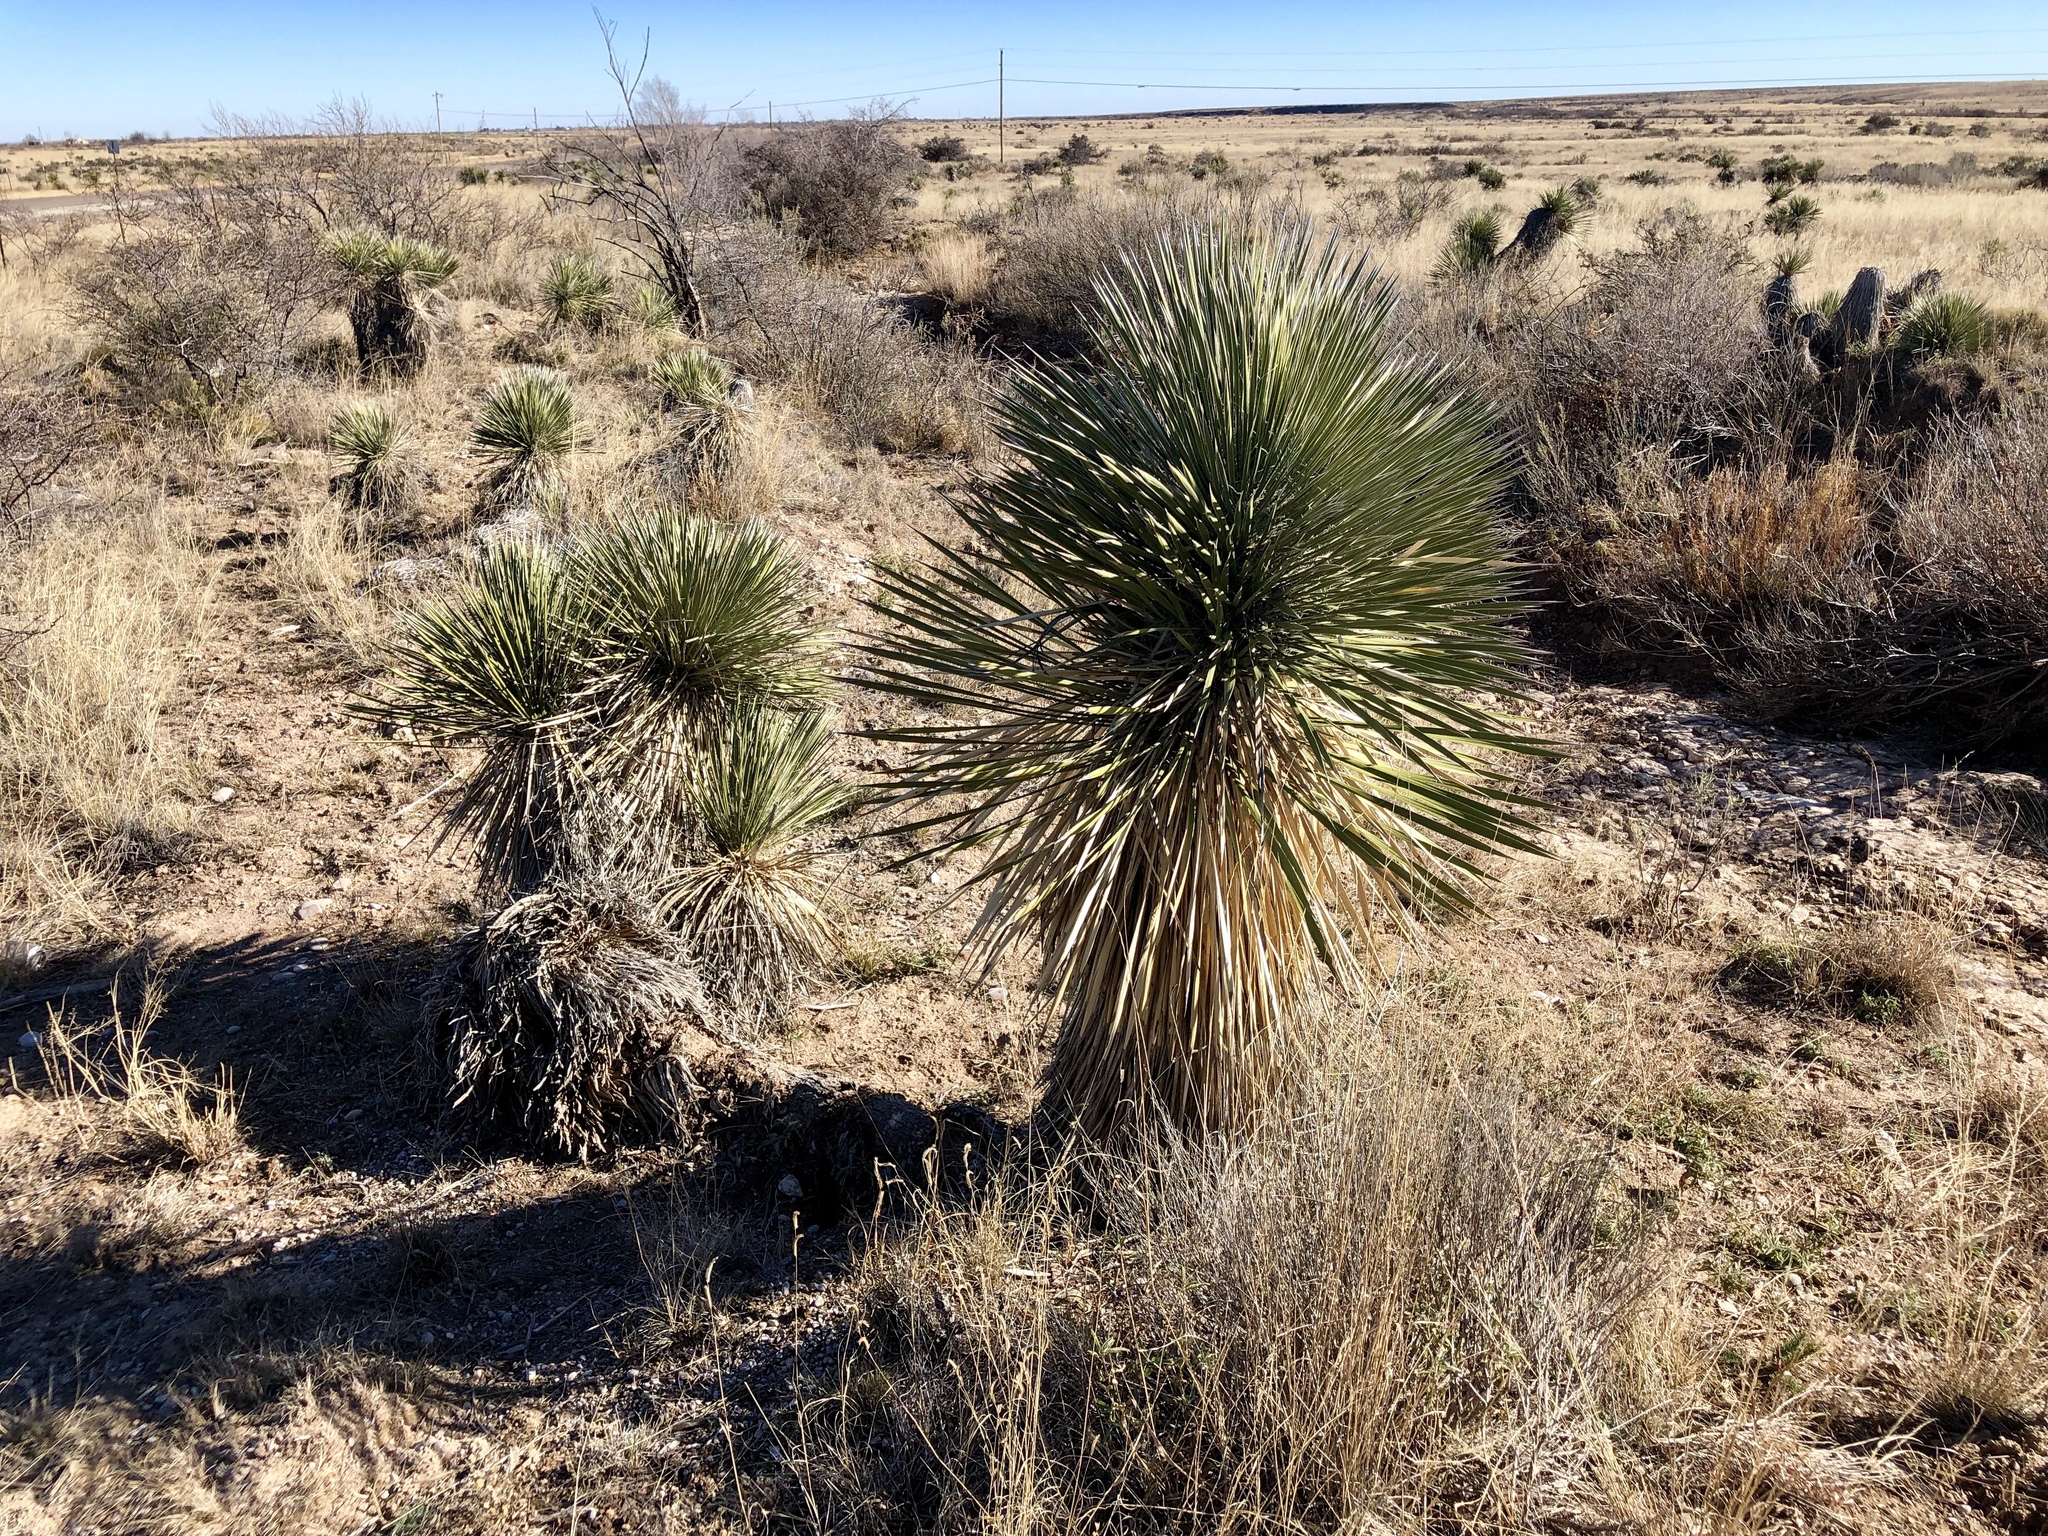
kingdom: Plantae
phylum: Tracheophyta
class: Liliopsida
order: Asparagales
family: Asparagaceae
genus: Yucca
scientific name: Yucca elata
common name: Palmella
